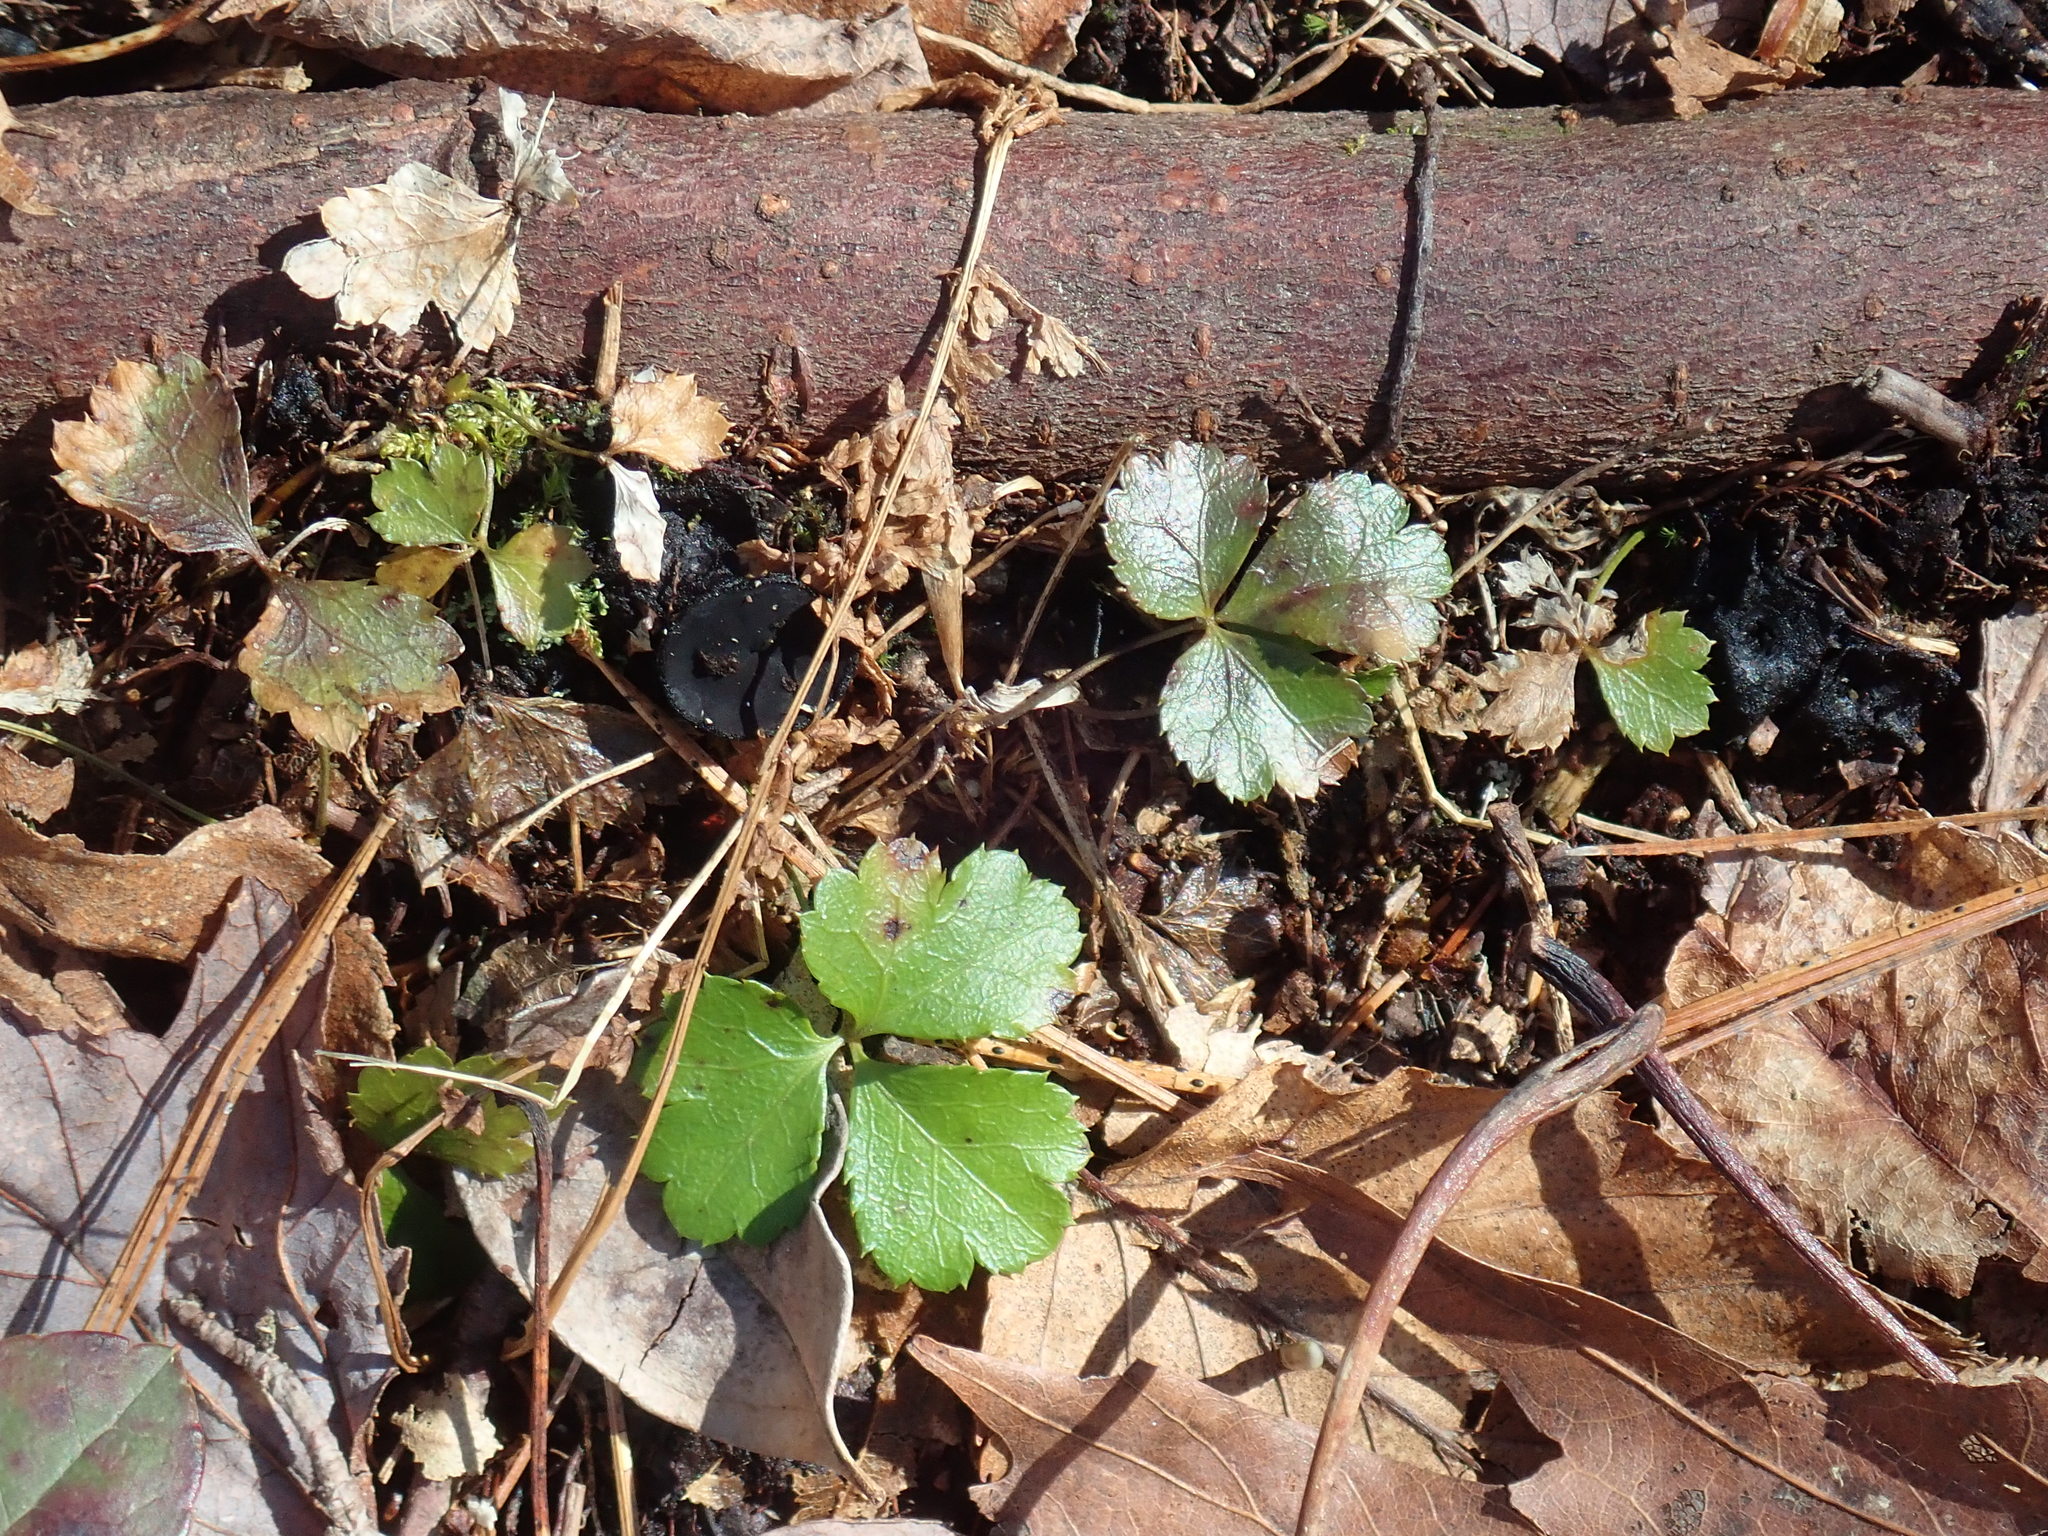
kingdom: Plantae
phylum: Tracheophyta
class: Magnoliopsida
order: Ranunculales
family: Ranunculaceae
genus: Coptis
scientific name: Coptis trifolia
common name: Canker-root
